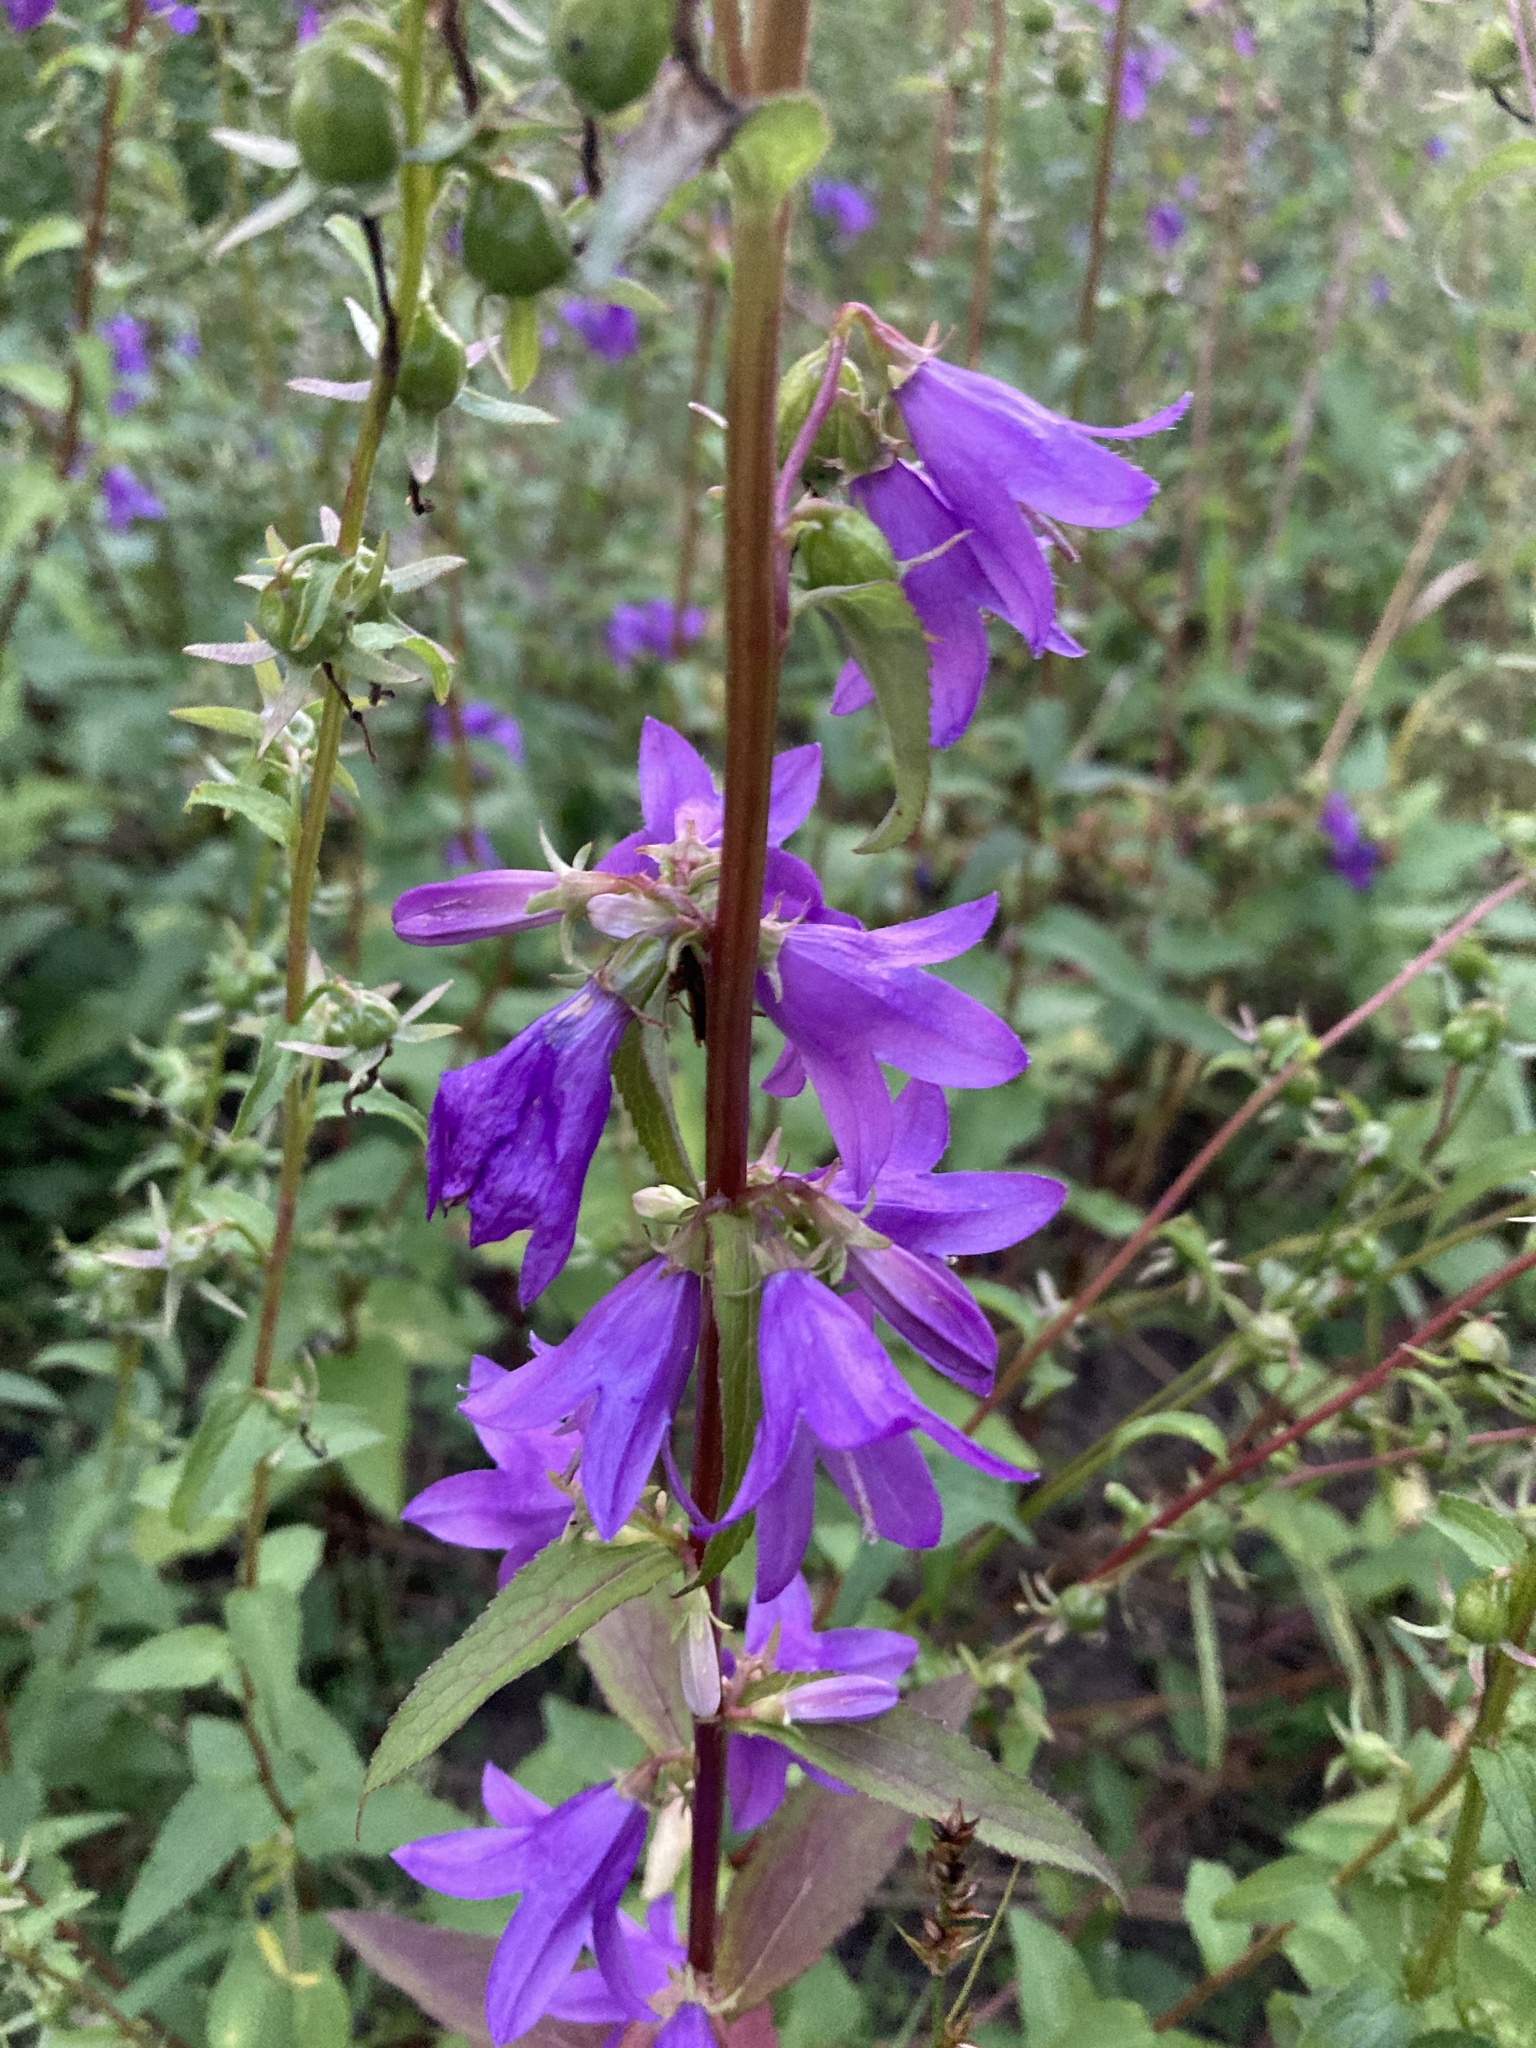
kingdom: Plantae
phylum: Tracheophyta
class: Magnoliopsida
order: Asterales
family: Campanulaceae
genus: Campanula
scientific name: Campanula rapunculoides
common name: Creeping bellflower
